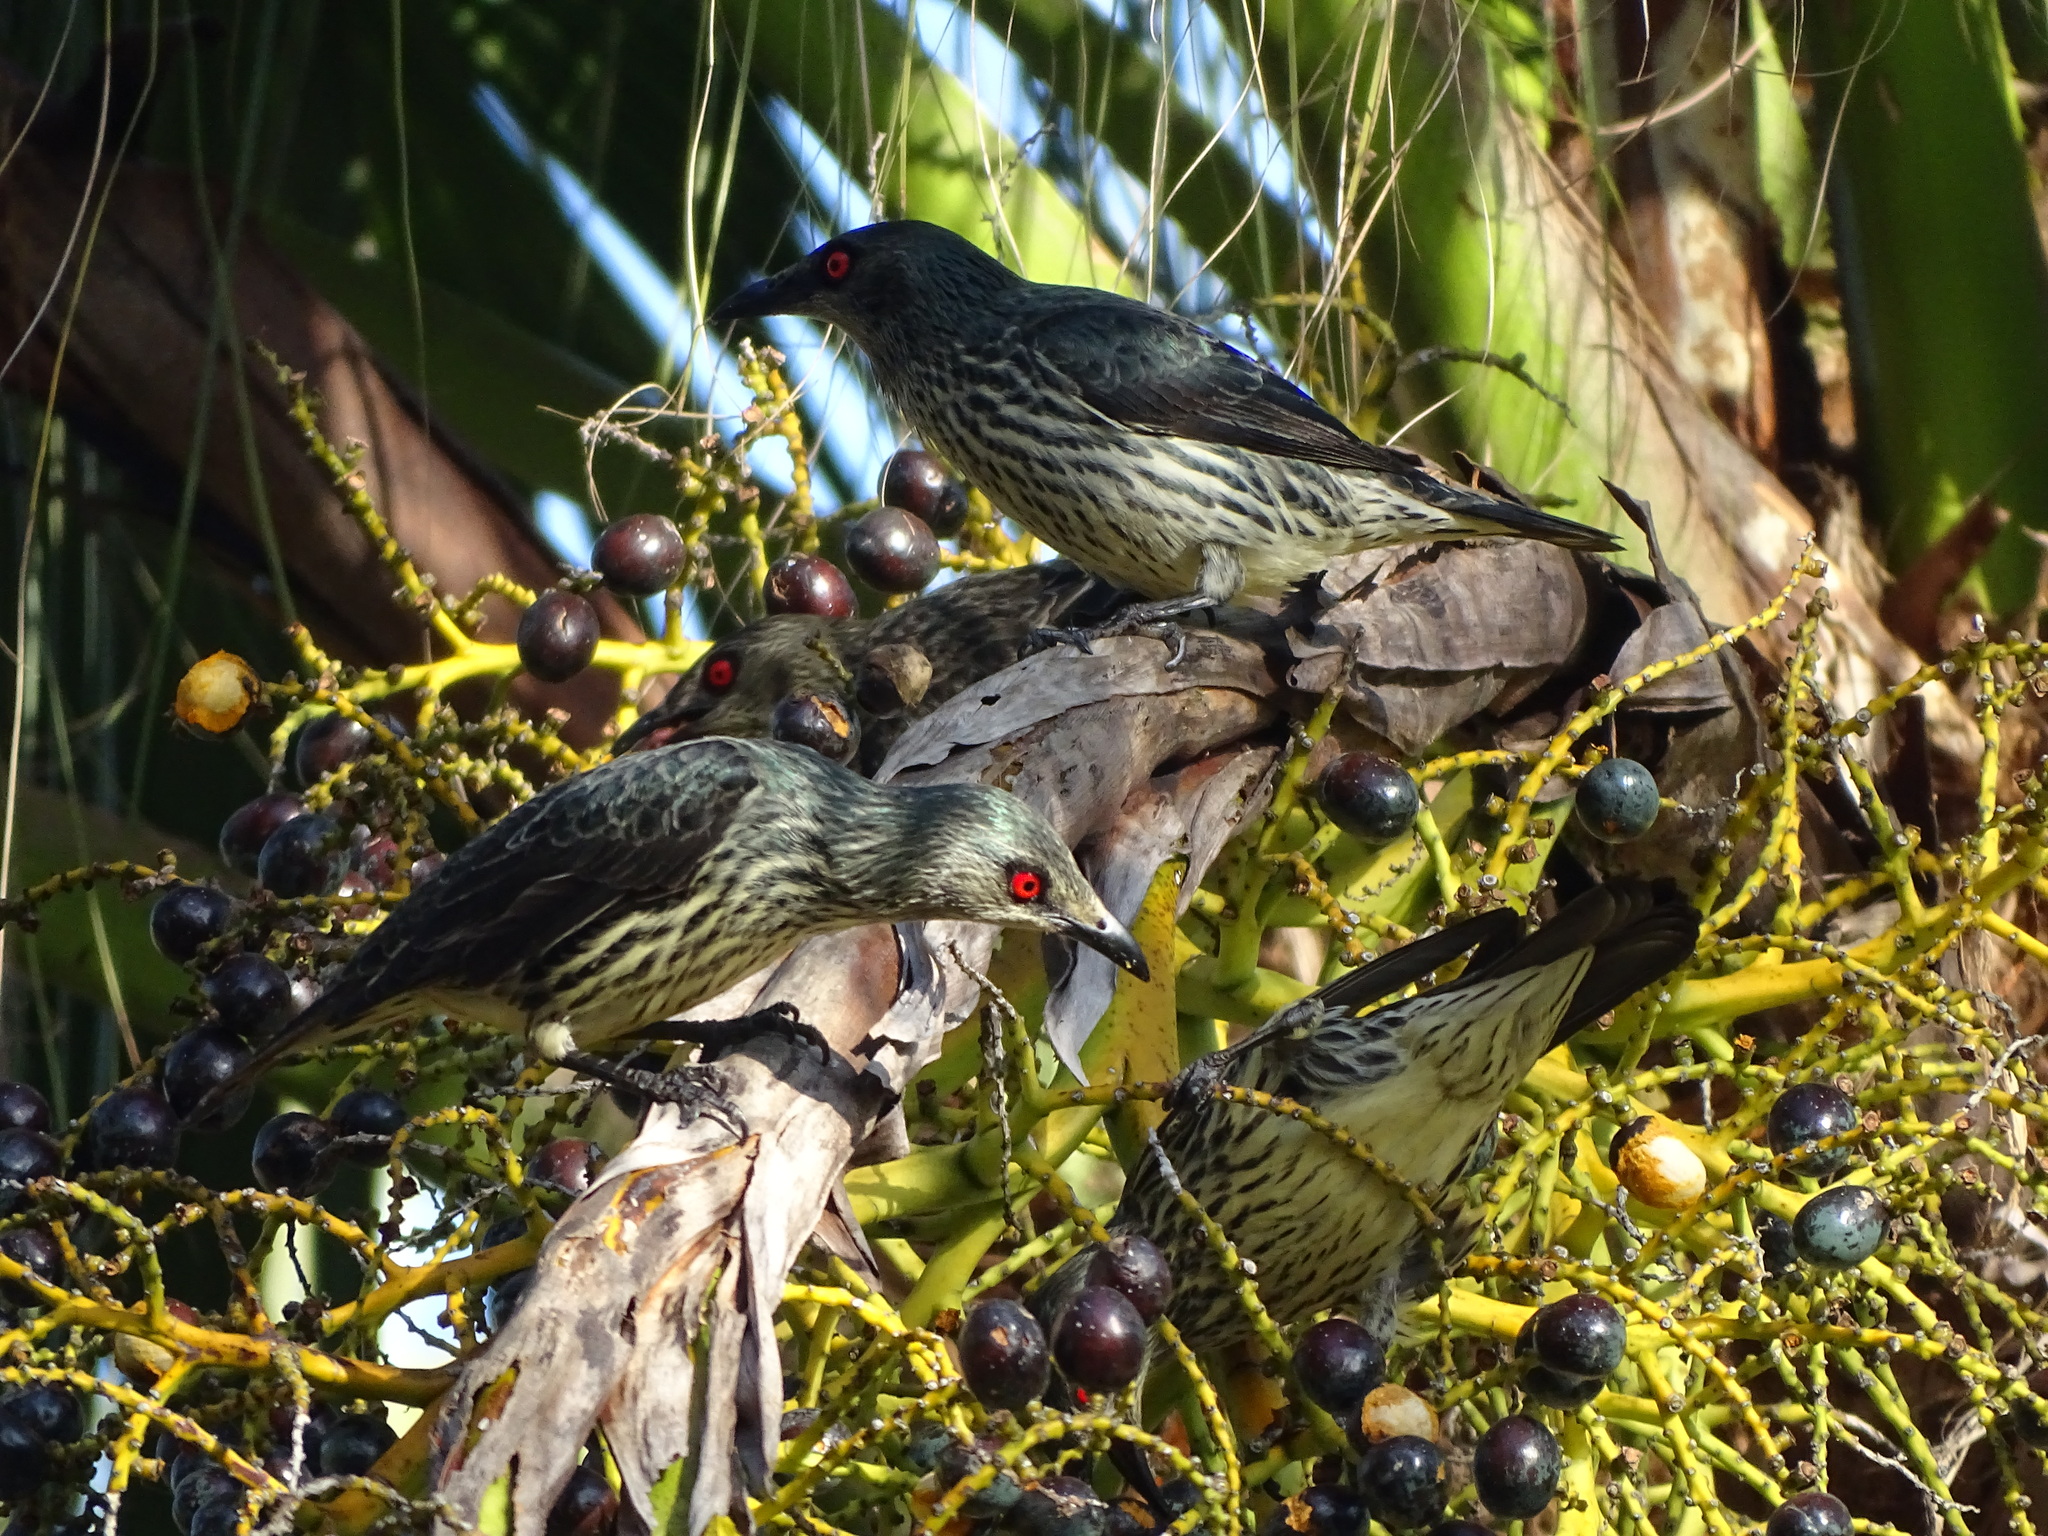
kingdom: Animalia
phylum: Chordata
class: Aves
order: Passeriformes
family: Sturnidae
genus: Aplonis
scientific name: Aplonis panayensis
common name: Asian glossy starling
